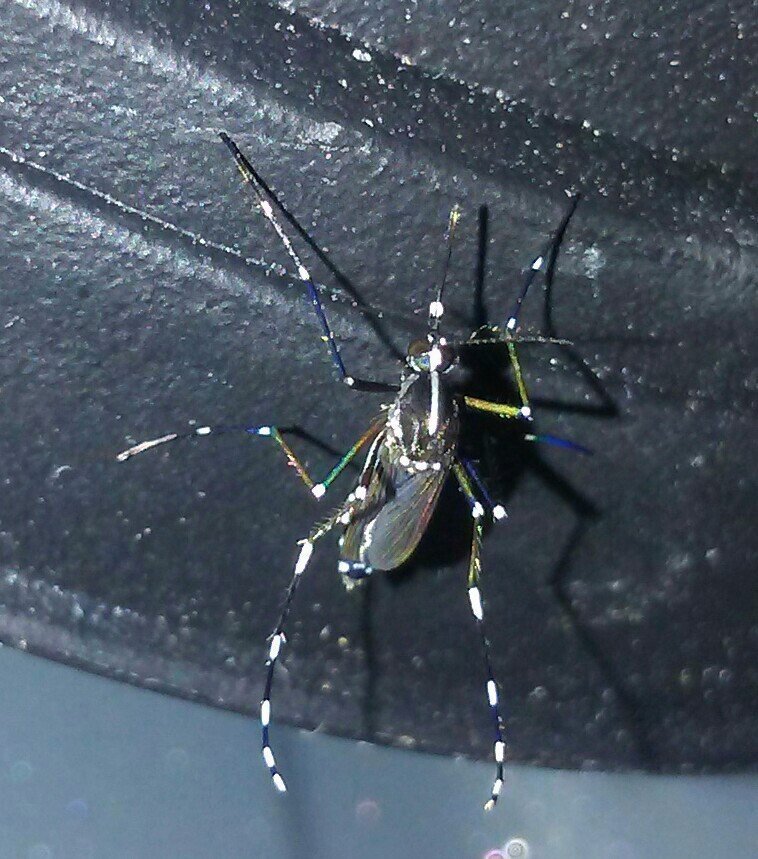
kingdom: Animalia
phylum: Arthropoda
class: Insecta
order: Diptera
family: Culicidae
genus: Aedes
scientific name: Aedes albopictus
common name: Tiger mosquito
